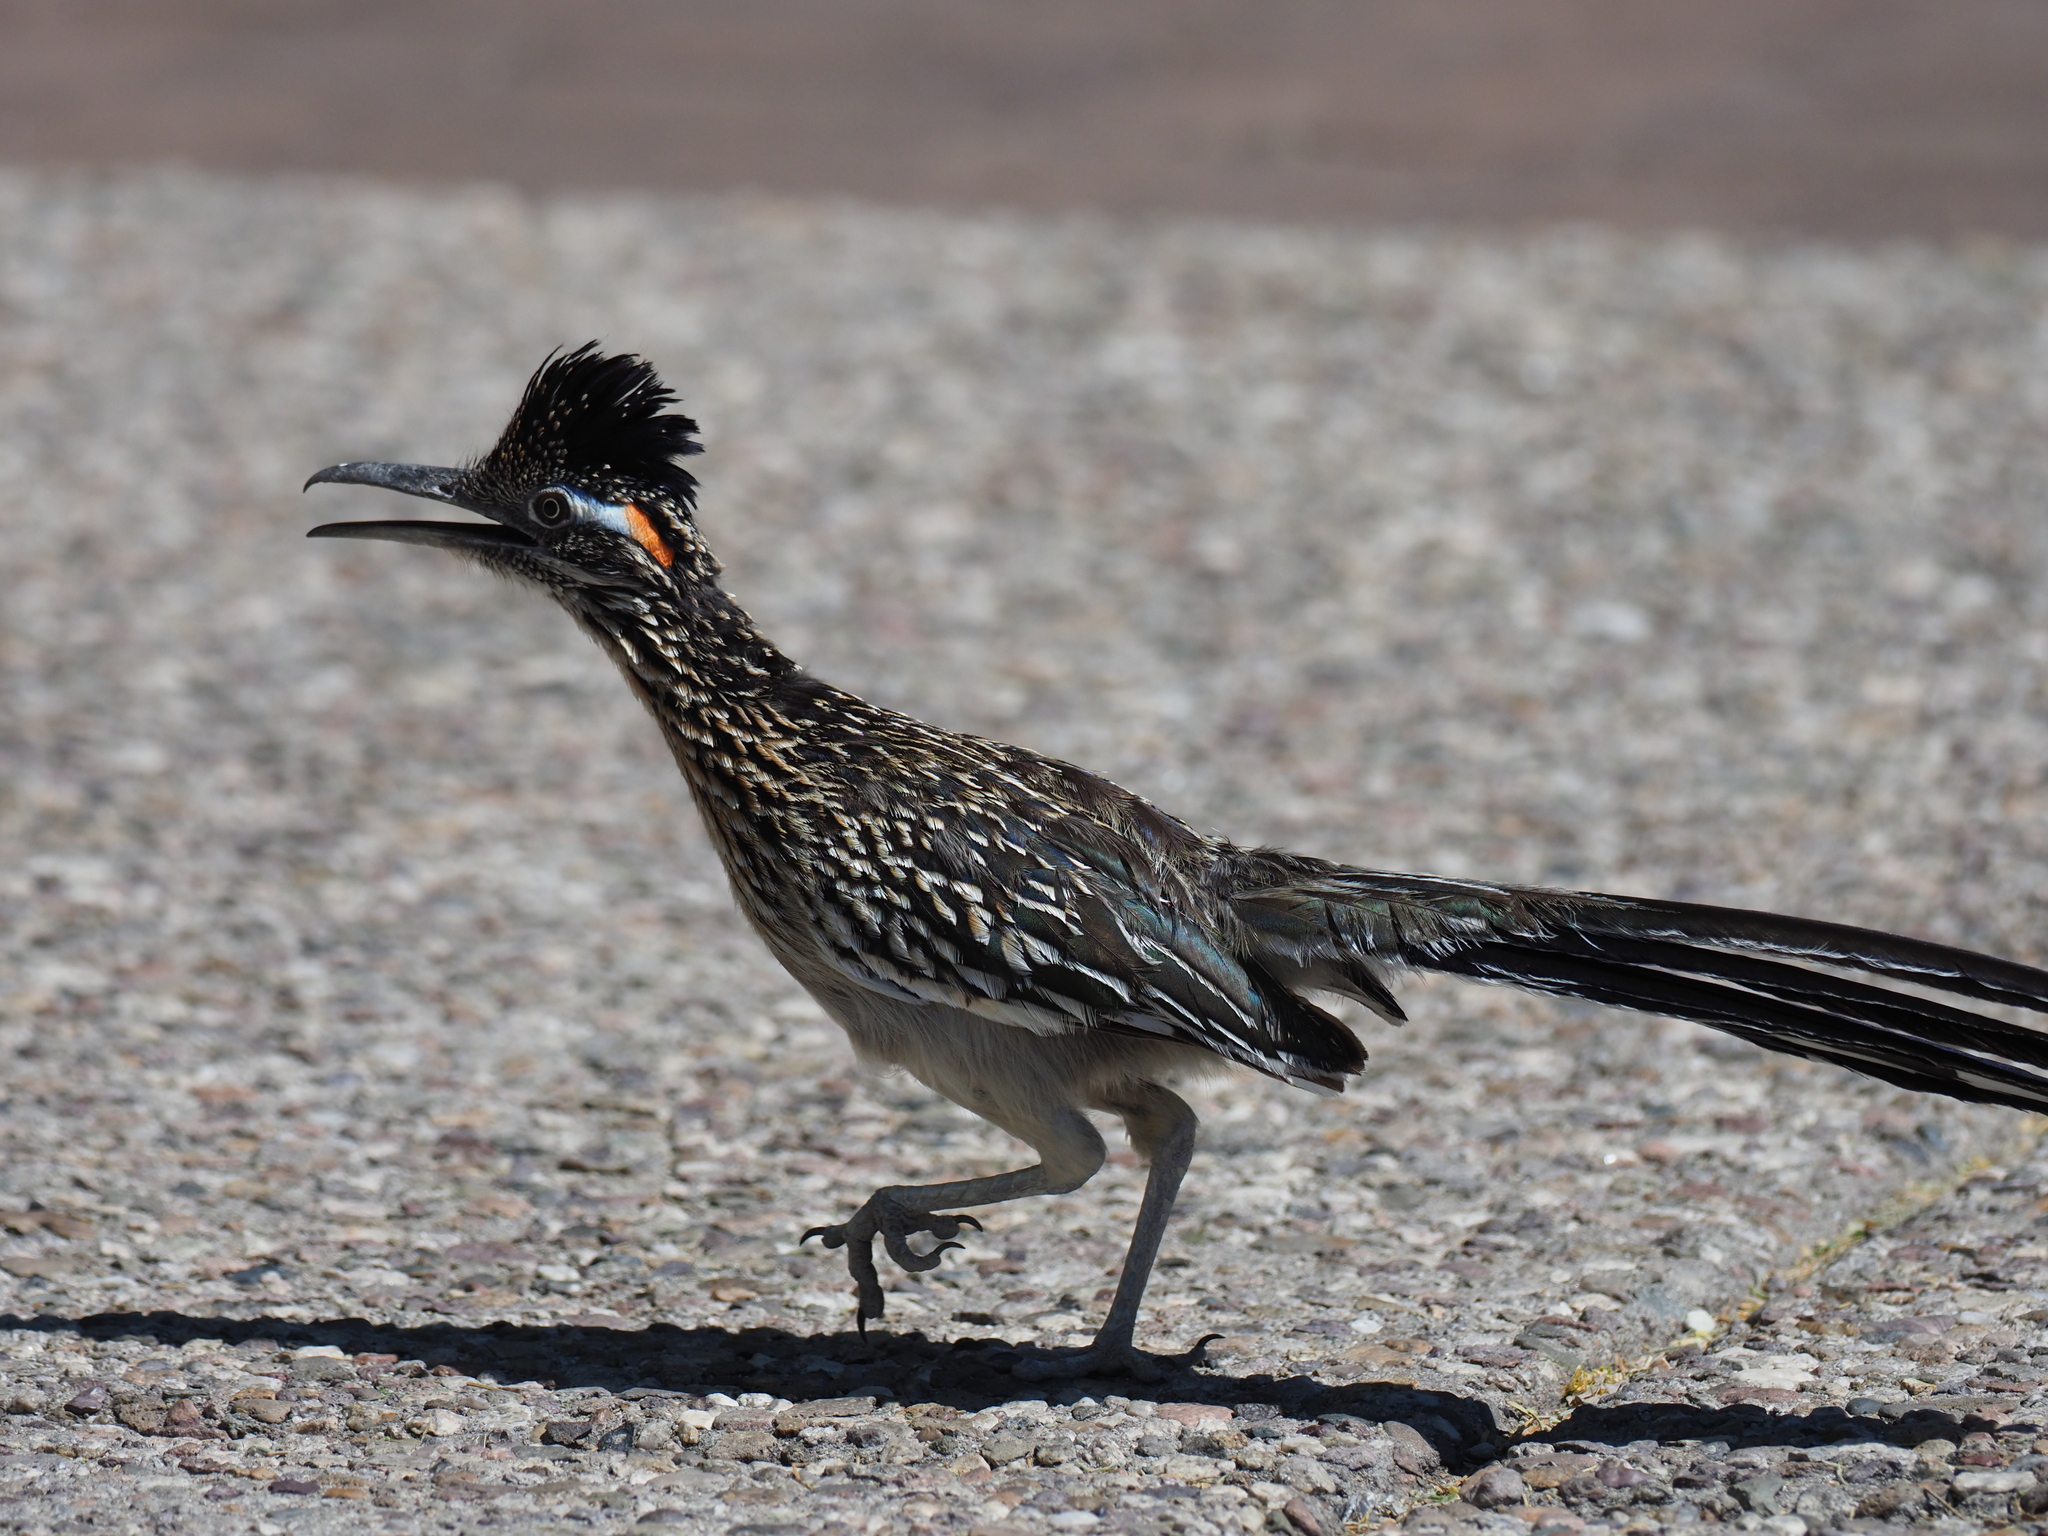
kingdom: Animalia
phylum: Chordata
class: Aves
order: Cuculiformes
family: Cuculidae
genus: Geococcyx
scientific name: Geococcyx californianus
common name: Greater roadrunner
